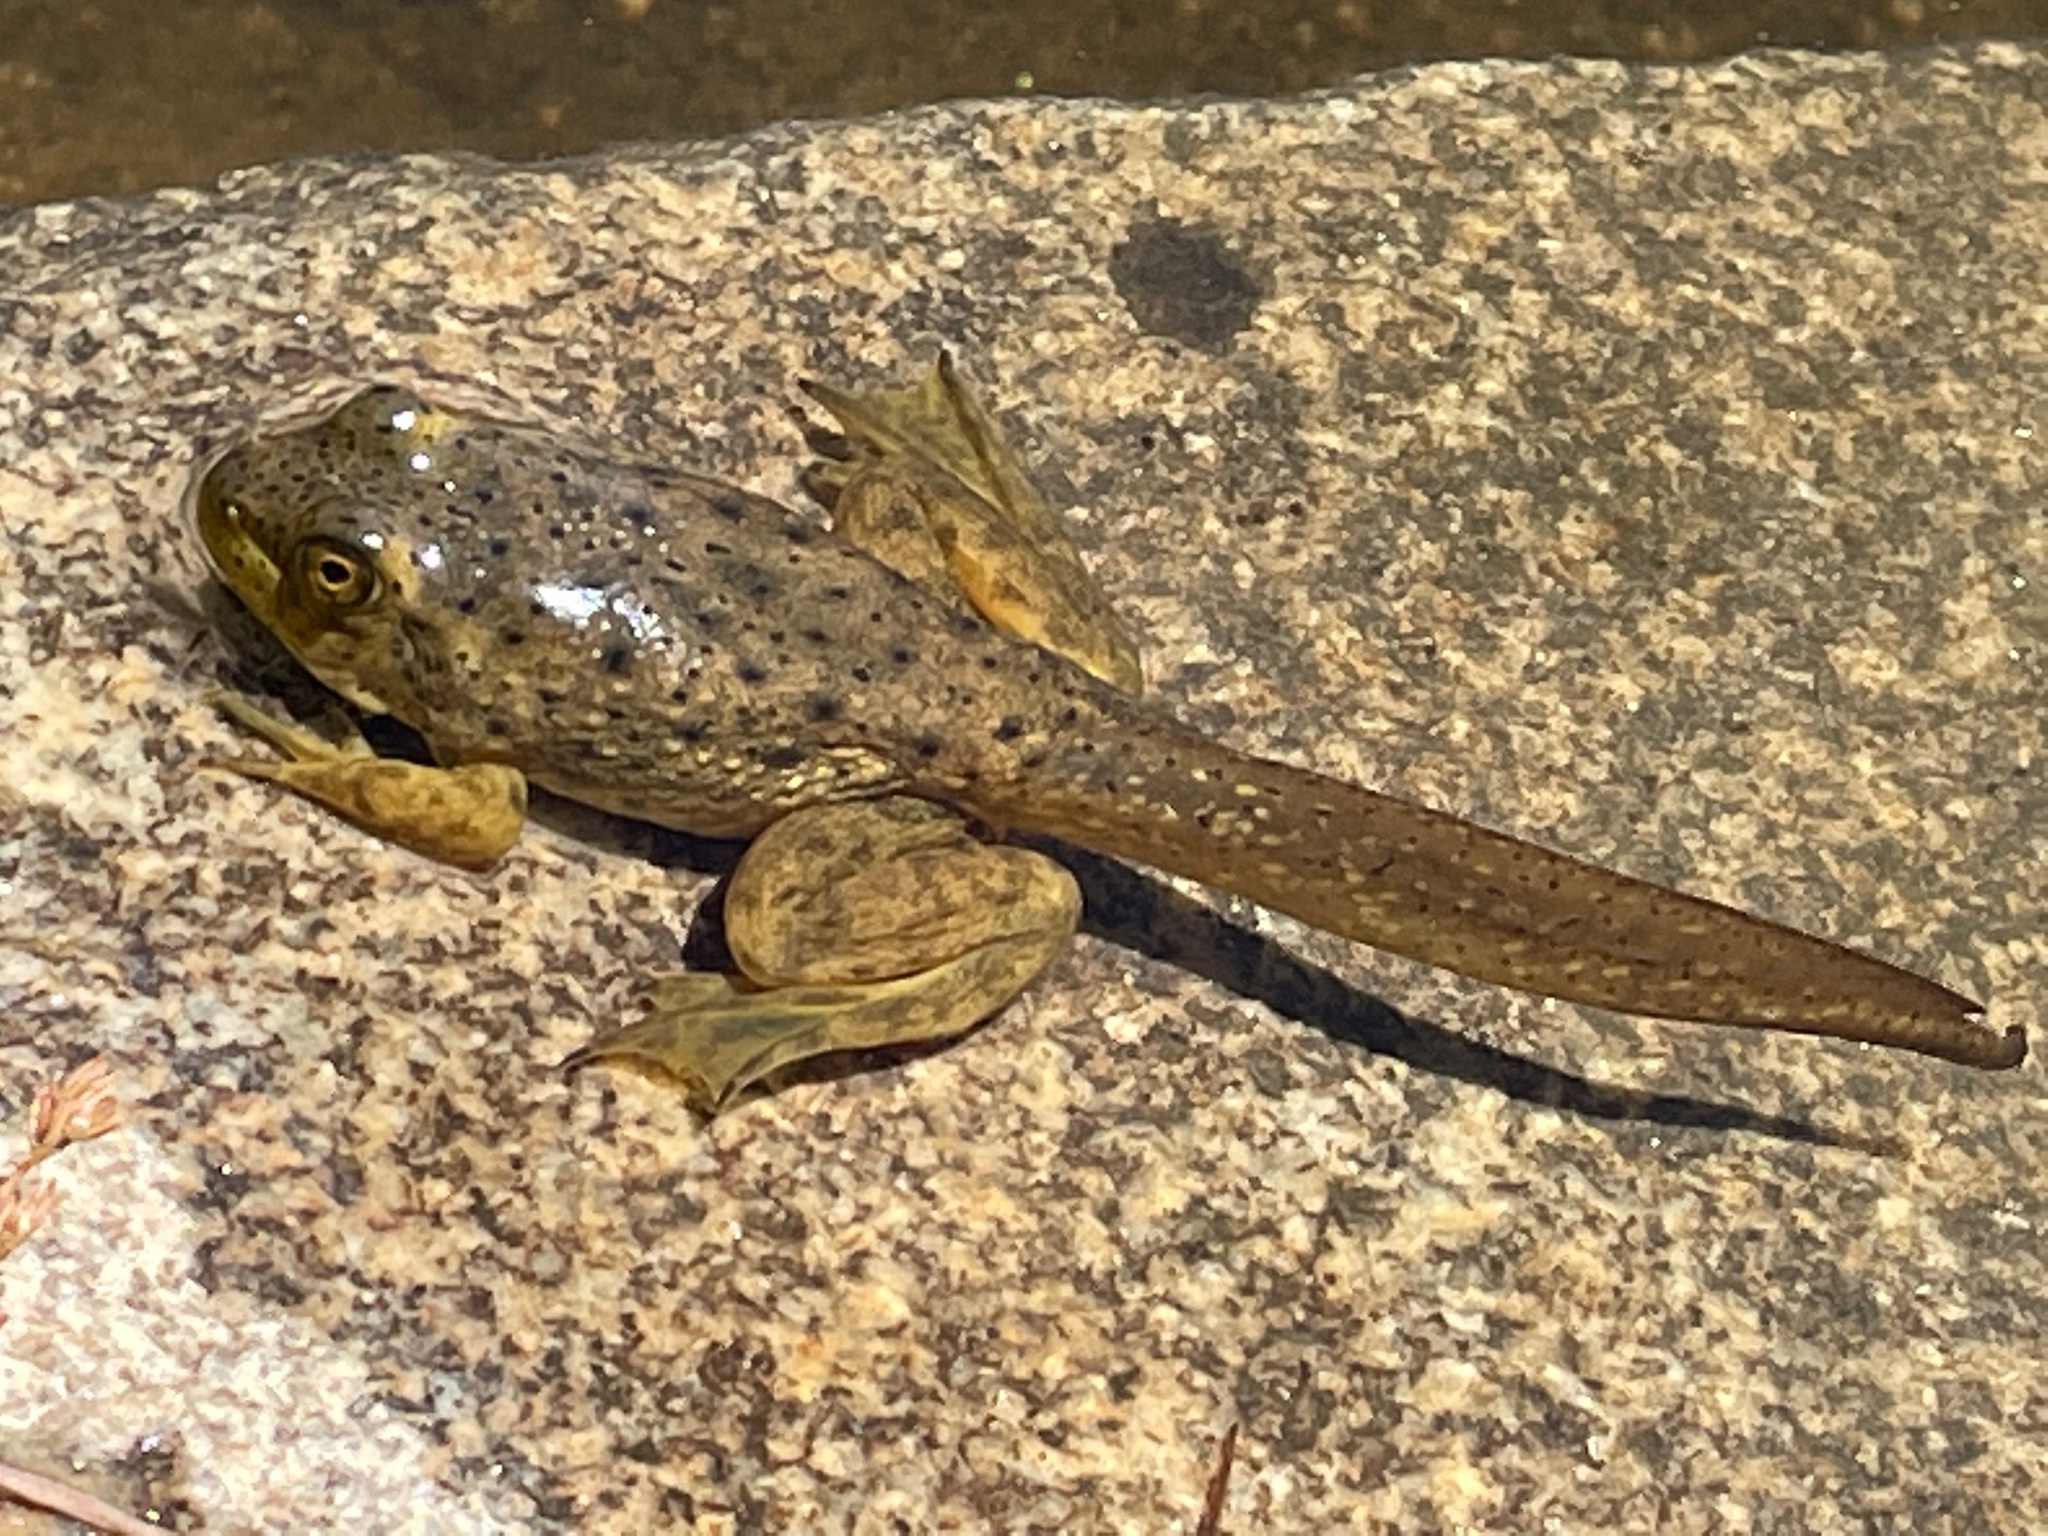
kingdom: Animalia
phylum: Chordata
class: Amphibia
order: Anura
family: Ranidae
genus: Lithobates
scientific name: Lithobates catesbeianus
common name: American bullfrog
